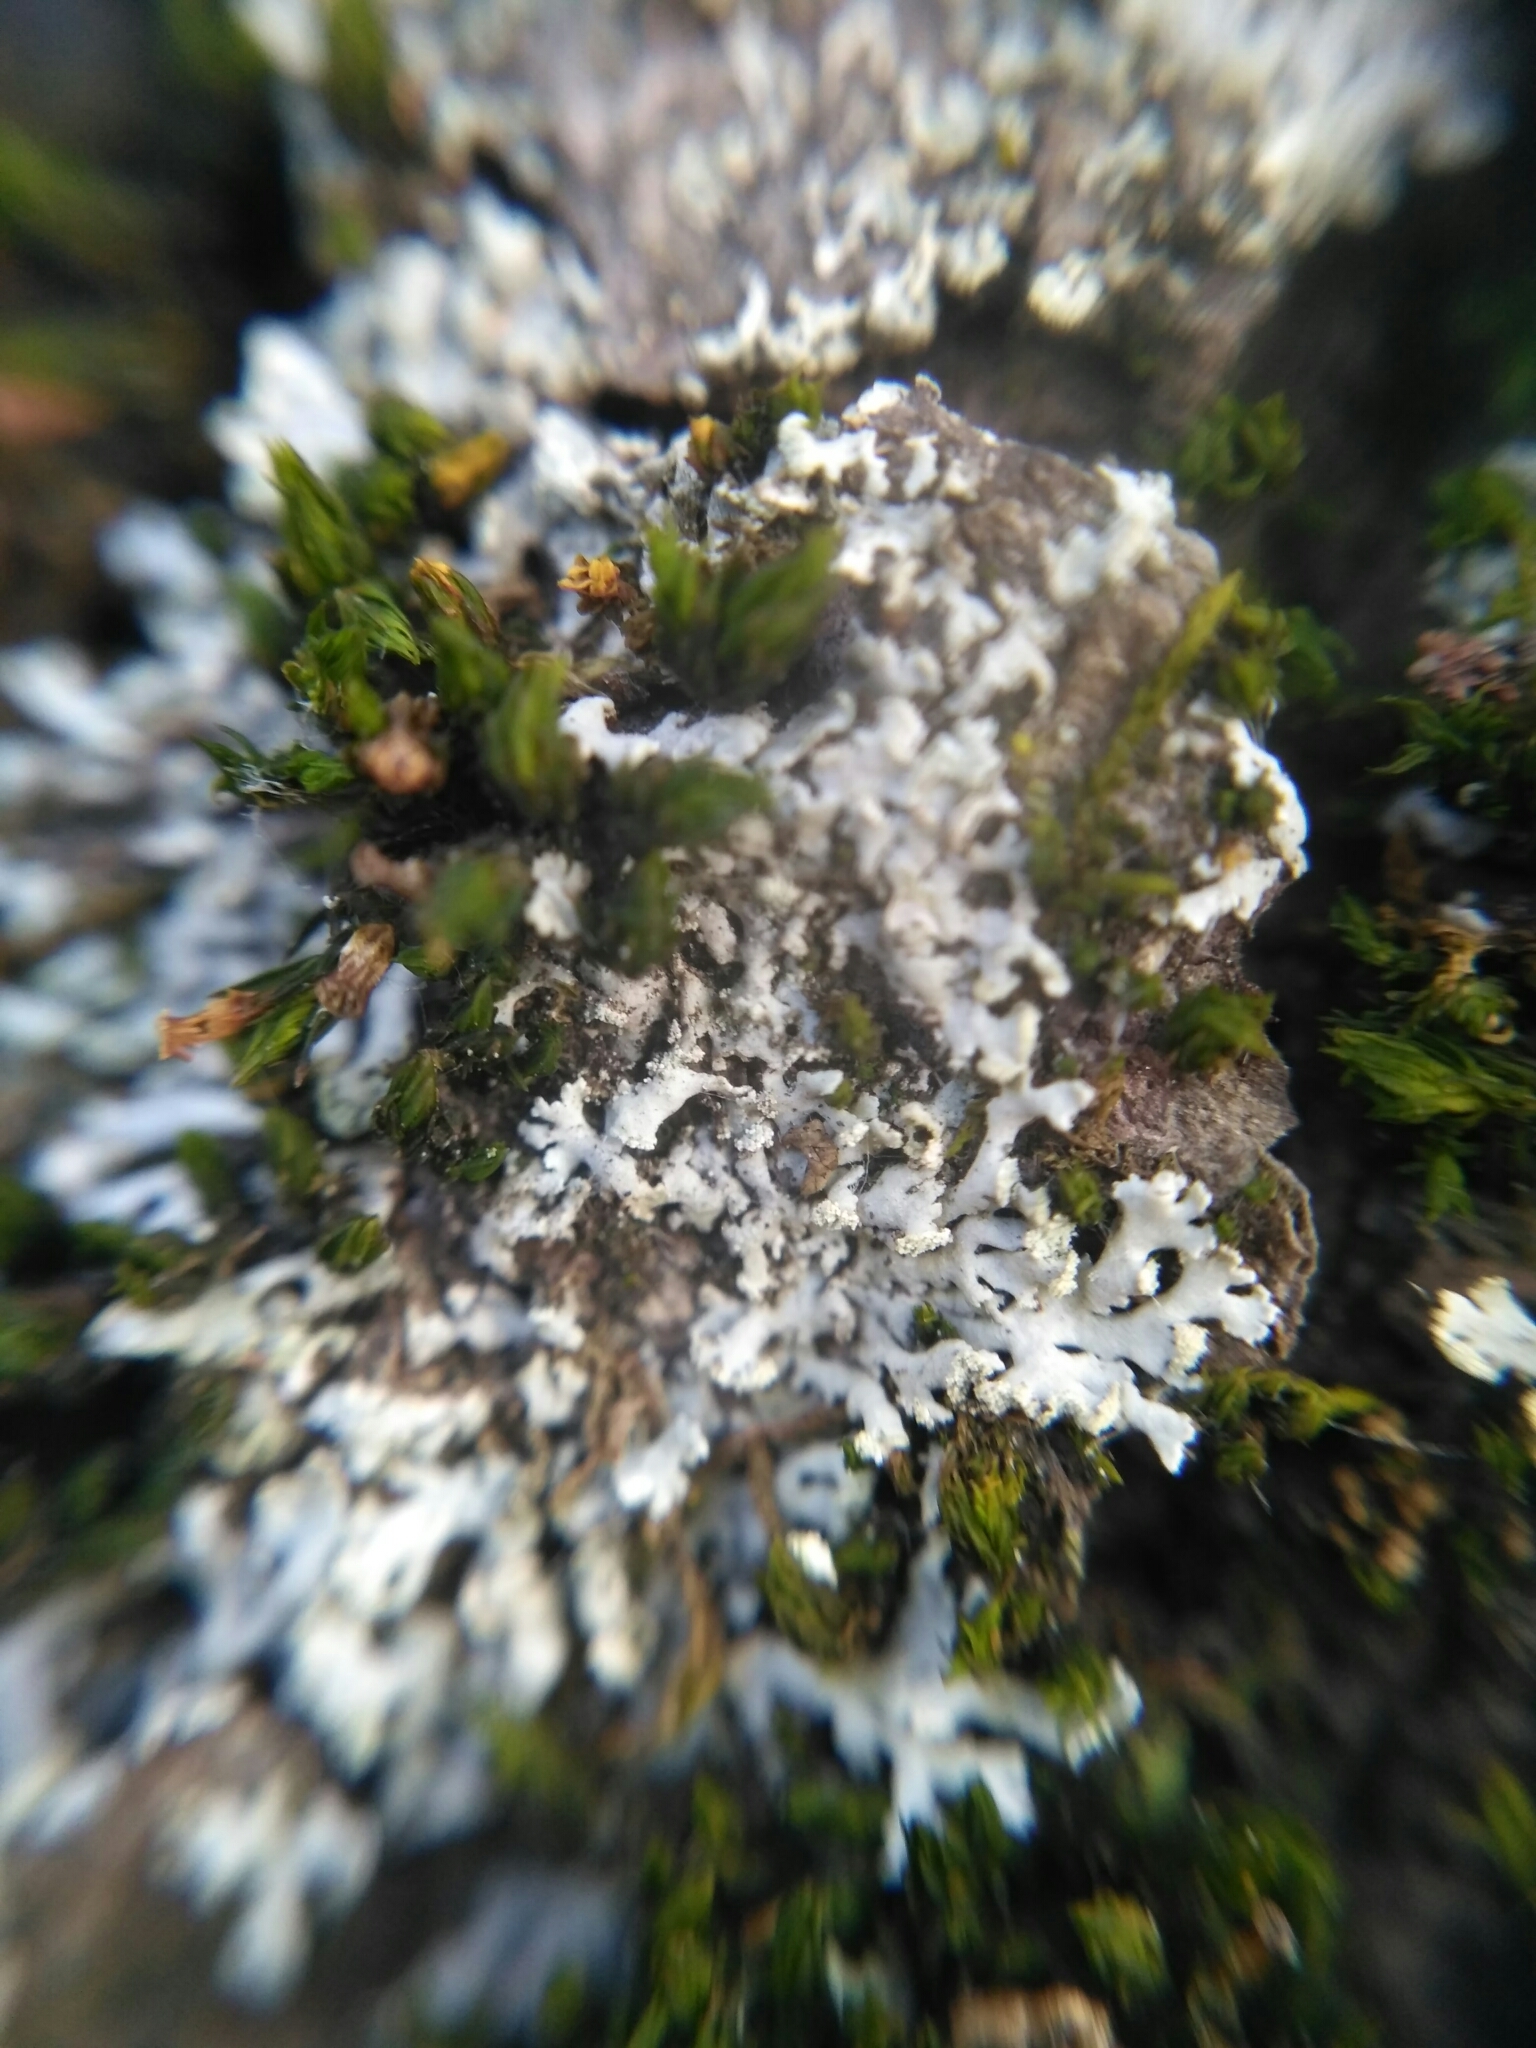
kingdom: Fungi
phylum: Ascomycota
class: Lecanoromycetes
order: Caliciales
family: Physciaceae
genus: Physcia
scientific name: Physcia tenella
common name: Fringed rosette lichen
